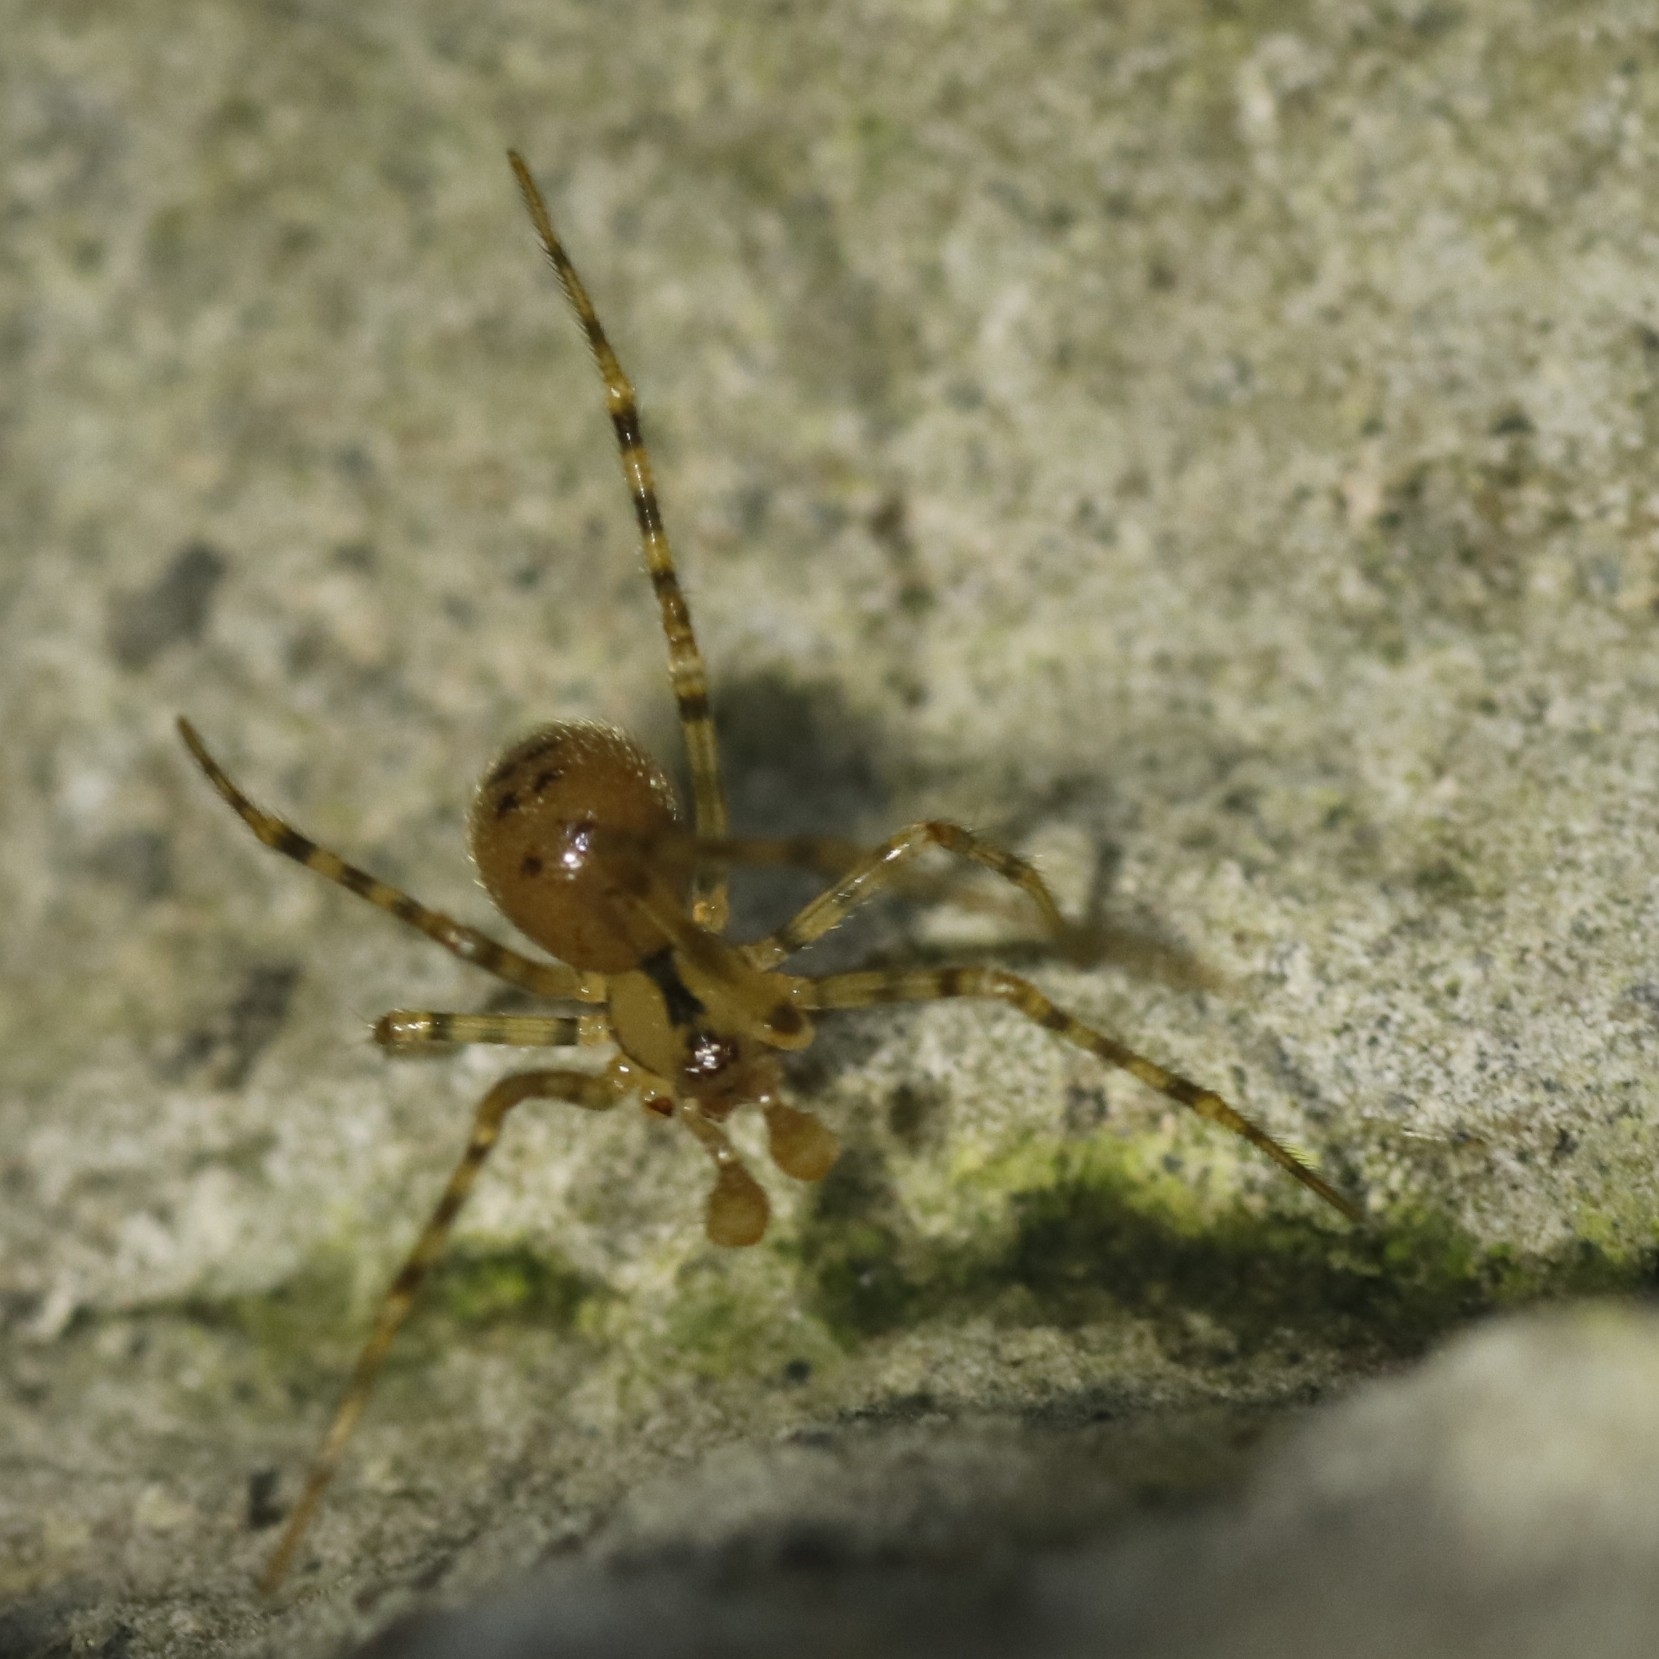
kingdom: Animalia
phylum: Arthropoda
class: Arachnida
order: Araneae
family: Nesticidae
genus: Nesticus
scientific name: Nesticus cellulanus
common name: Comb-footed cellar spider
